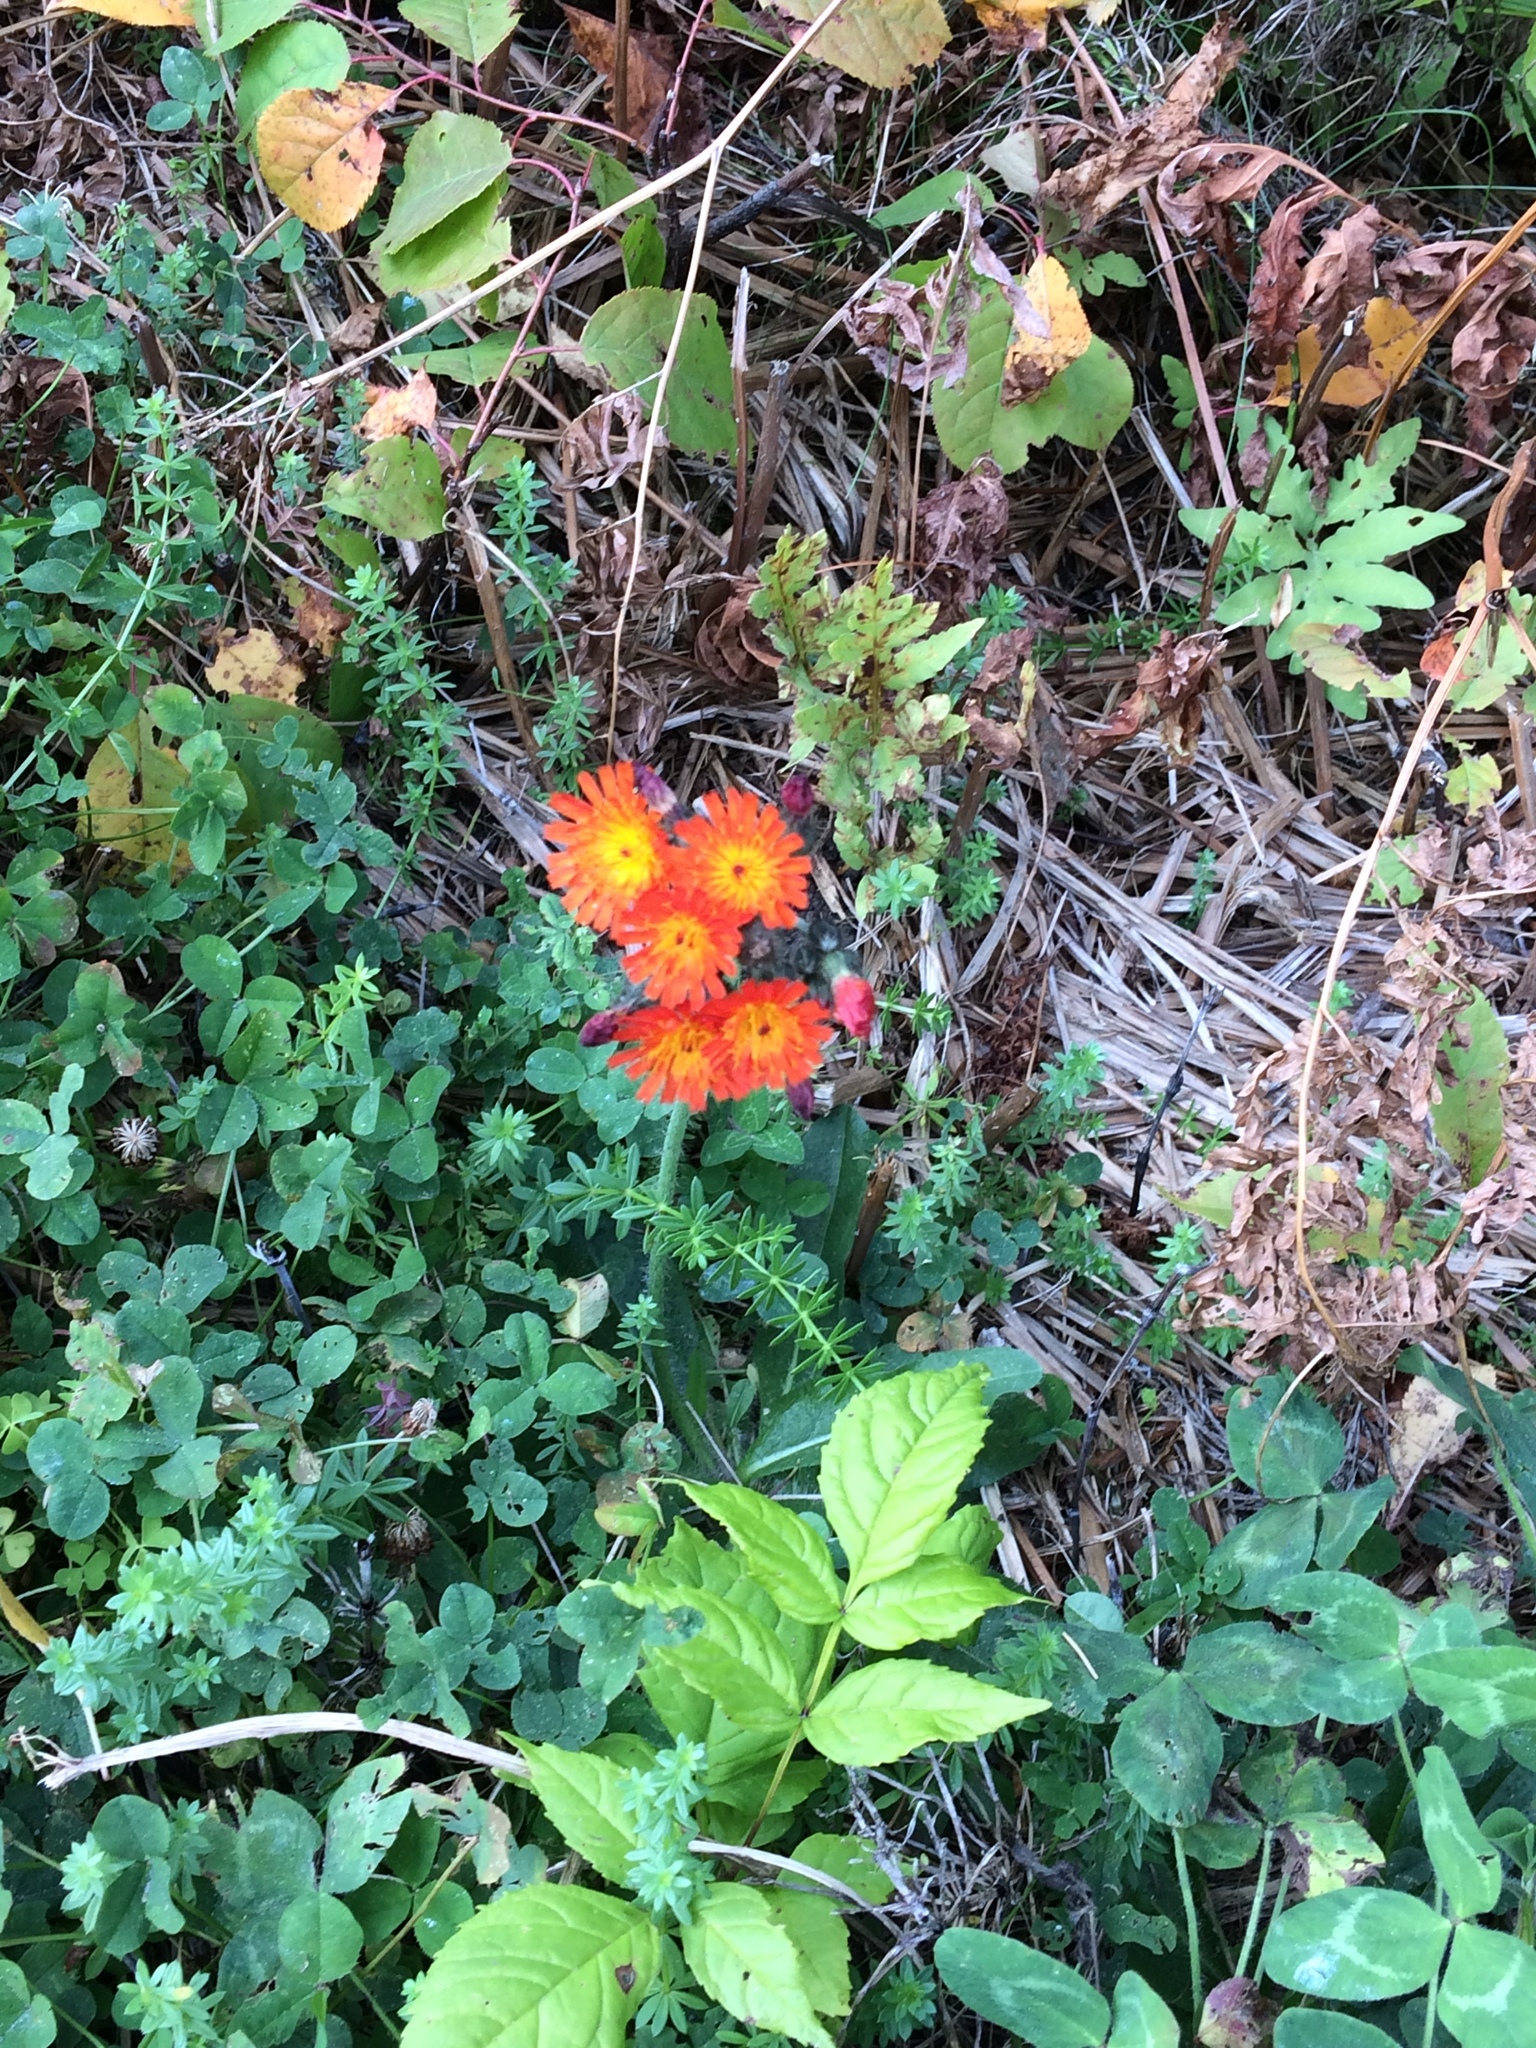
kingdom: Plantae
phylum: Tracheophyta
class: Magnoliopsida
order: Asterales
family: Asteraceae
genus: Pilosella
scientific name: Pilosella aurantiaca
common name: Fox-and-cubs
